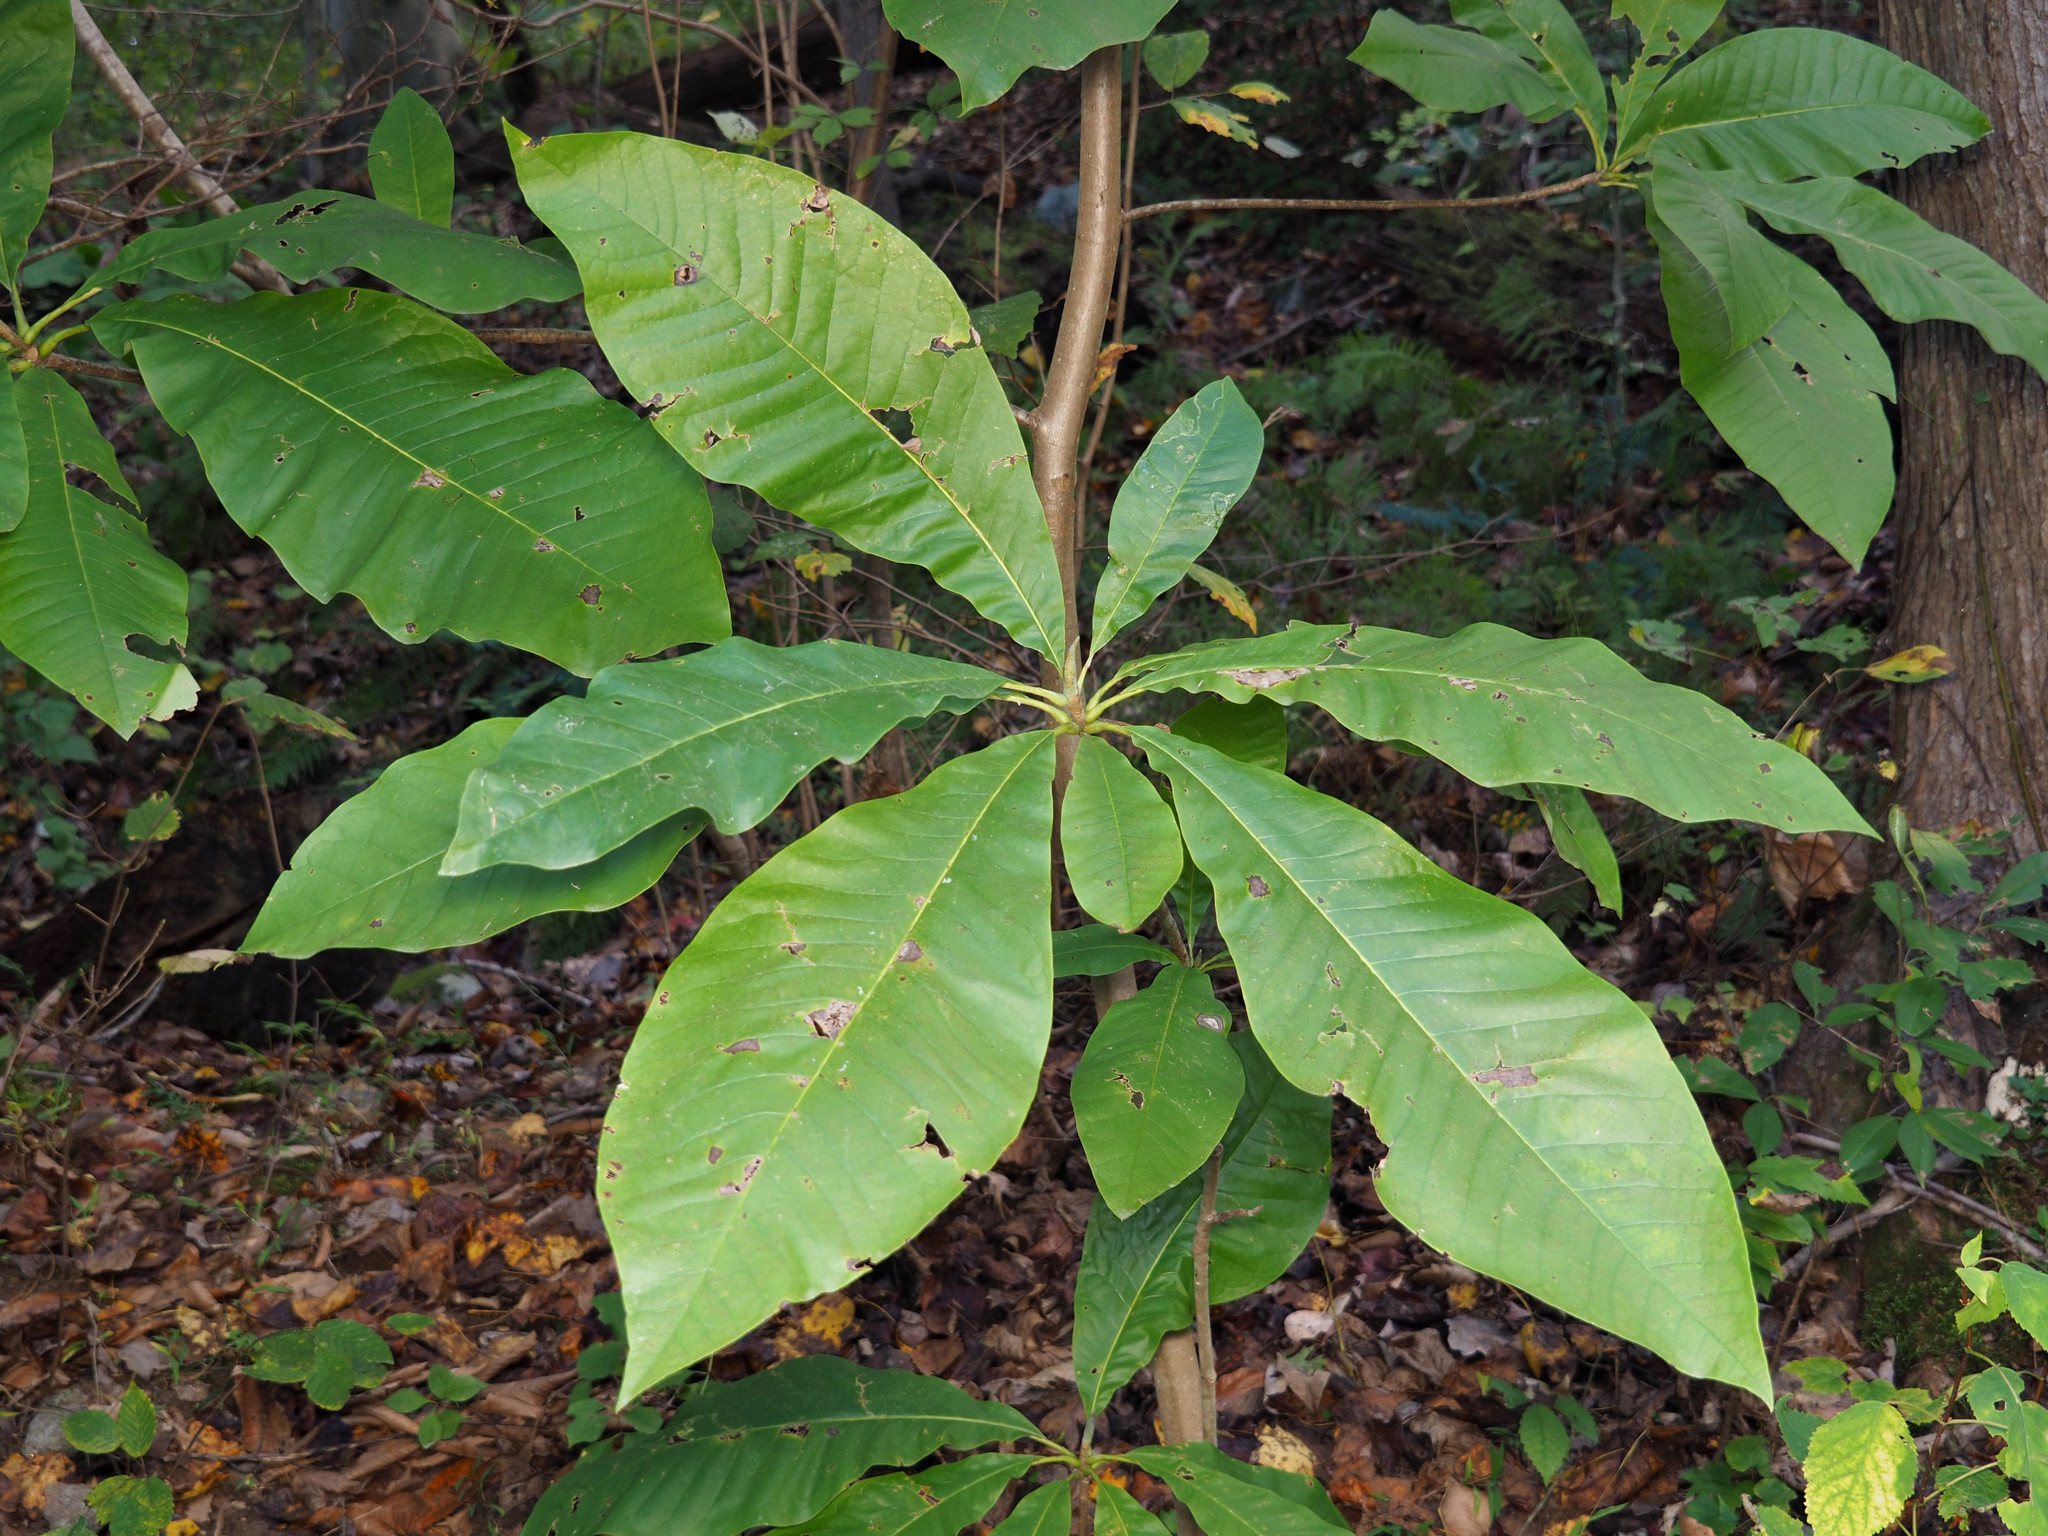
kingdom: Plantae
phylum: Tracheophyta
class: Magnoliopsida
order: Magnoliales
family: Magnoliaceae
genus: Magnolia
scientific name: Magnolia tripetala
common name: Umbrella magnolia
